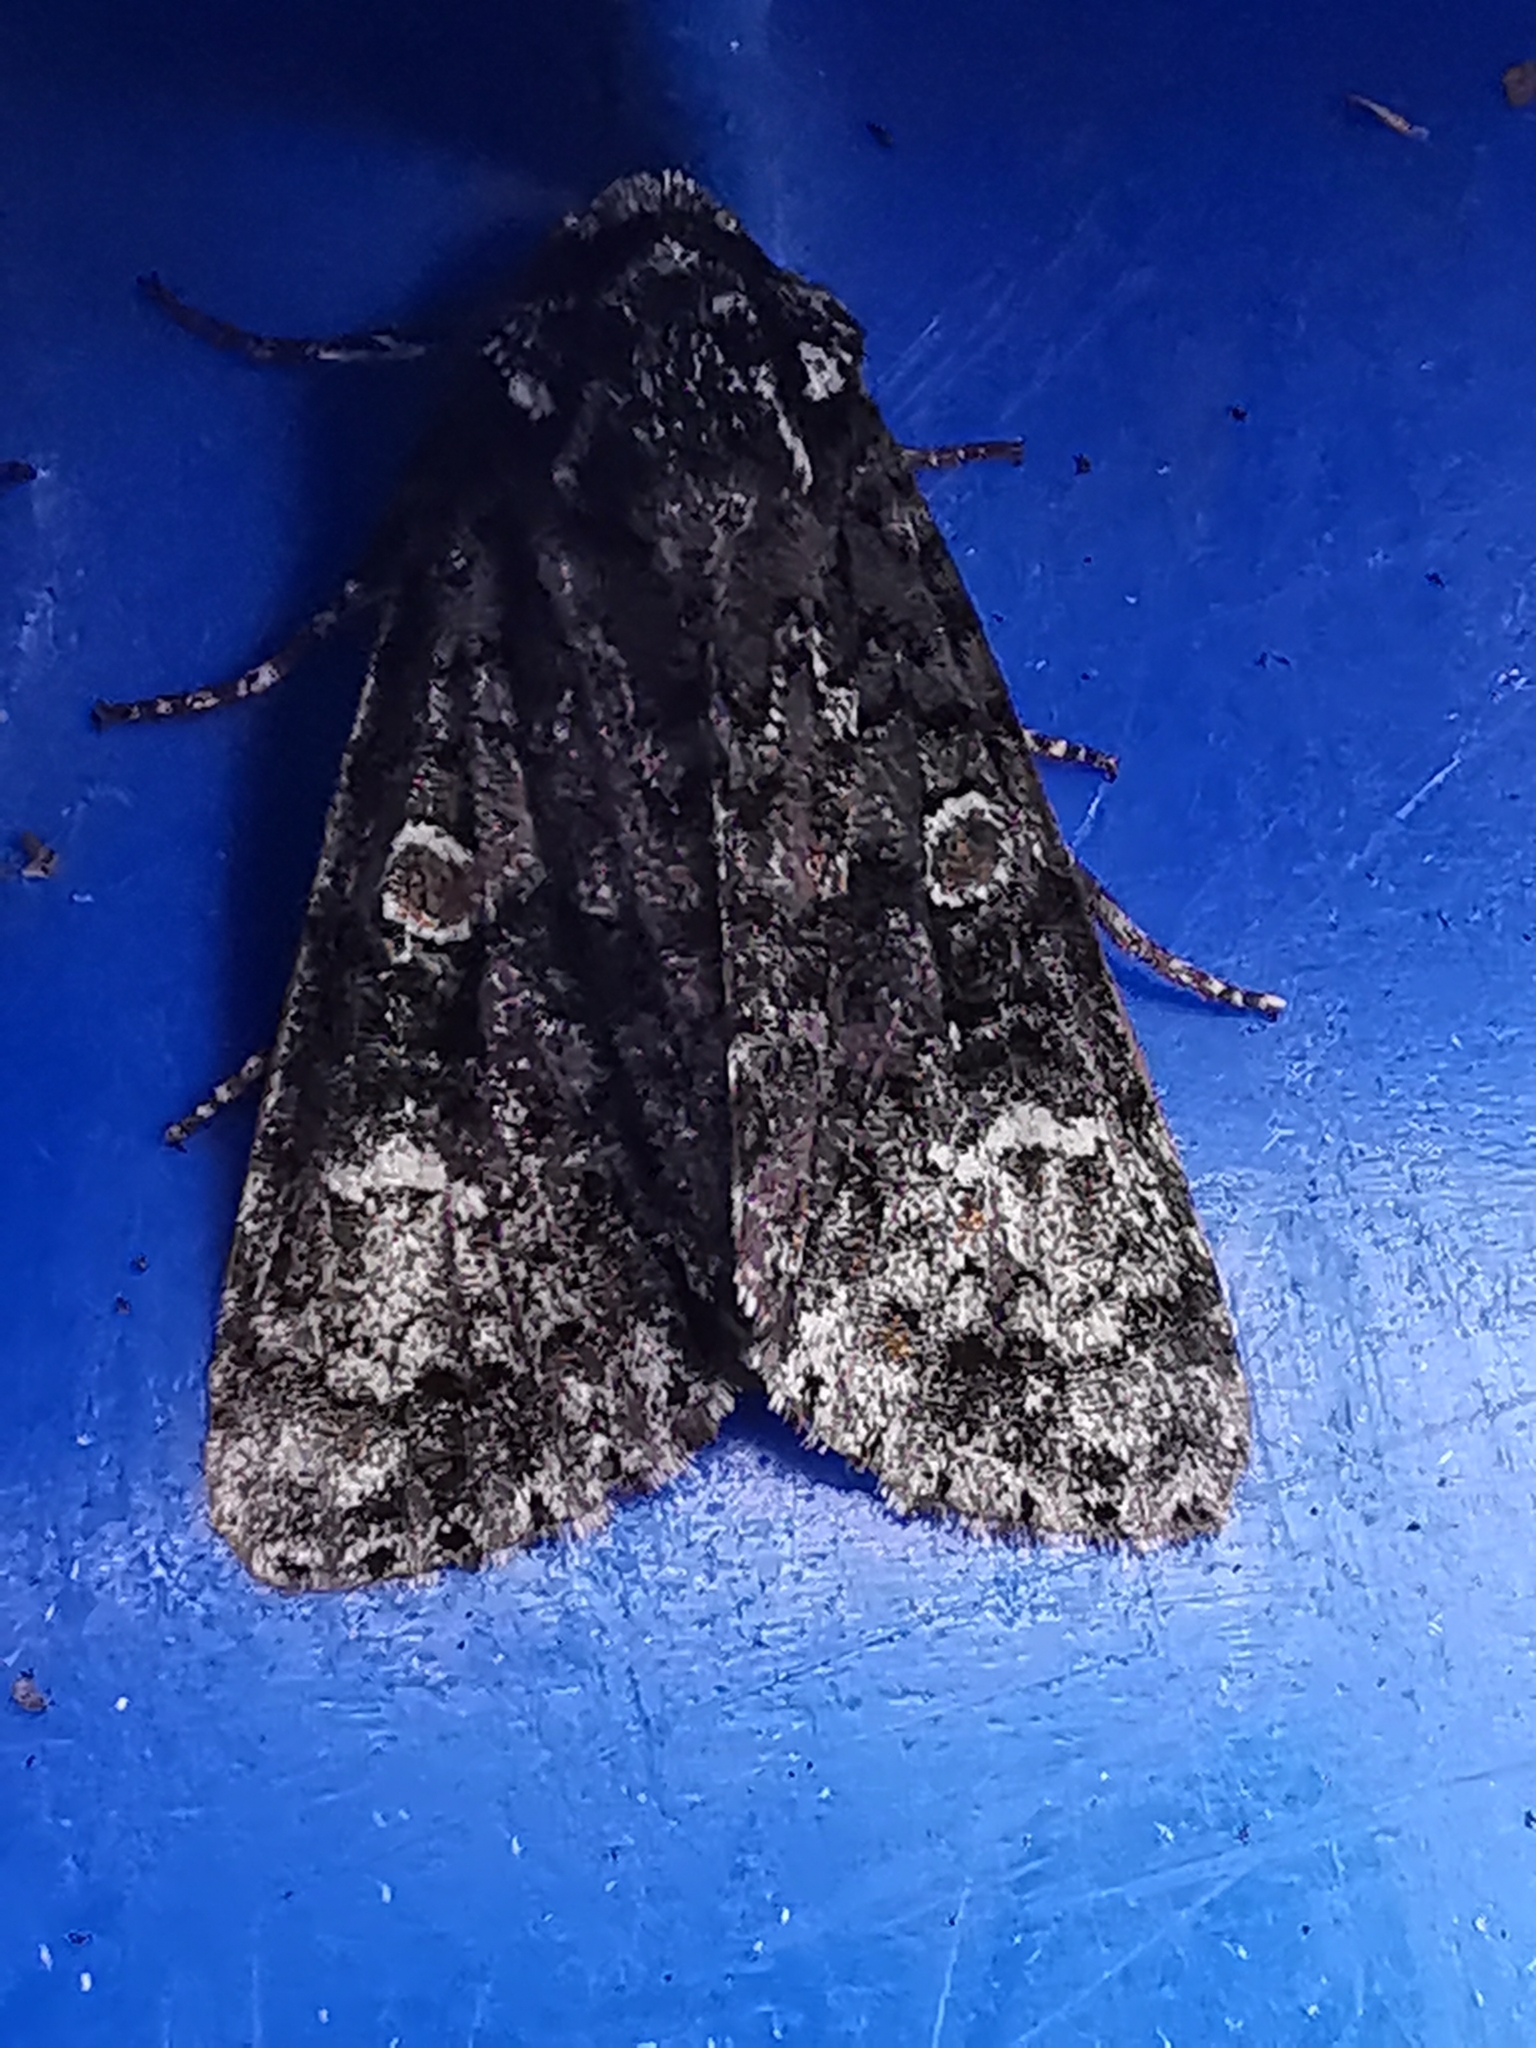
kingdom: Animalia
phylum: Arthropoda
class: Insecta
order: Lepidoptera
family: Noctuidae
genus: Craniophora
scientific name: Craniophora ligustri
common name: Coronet
